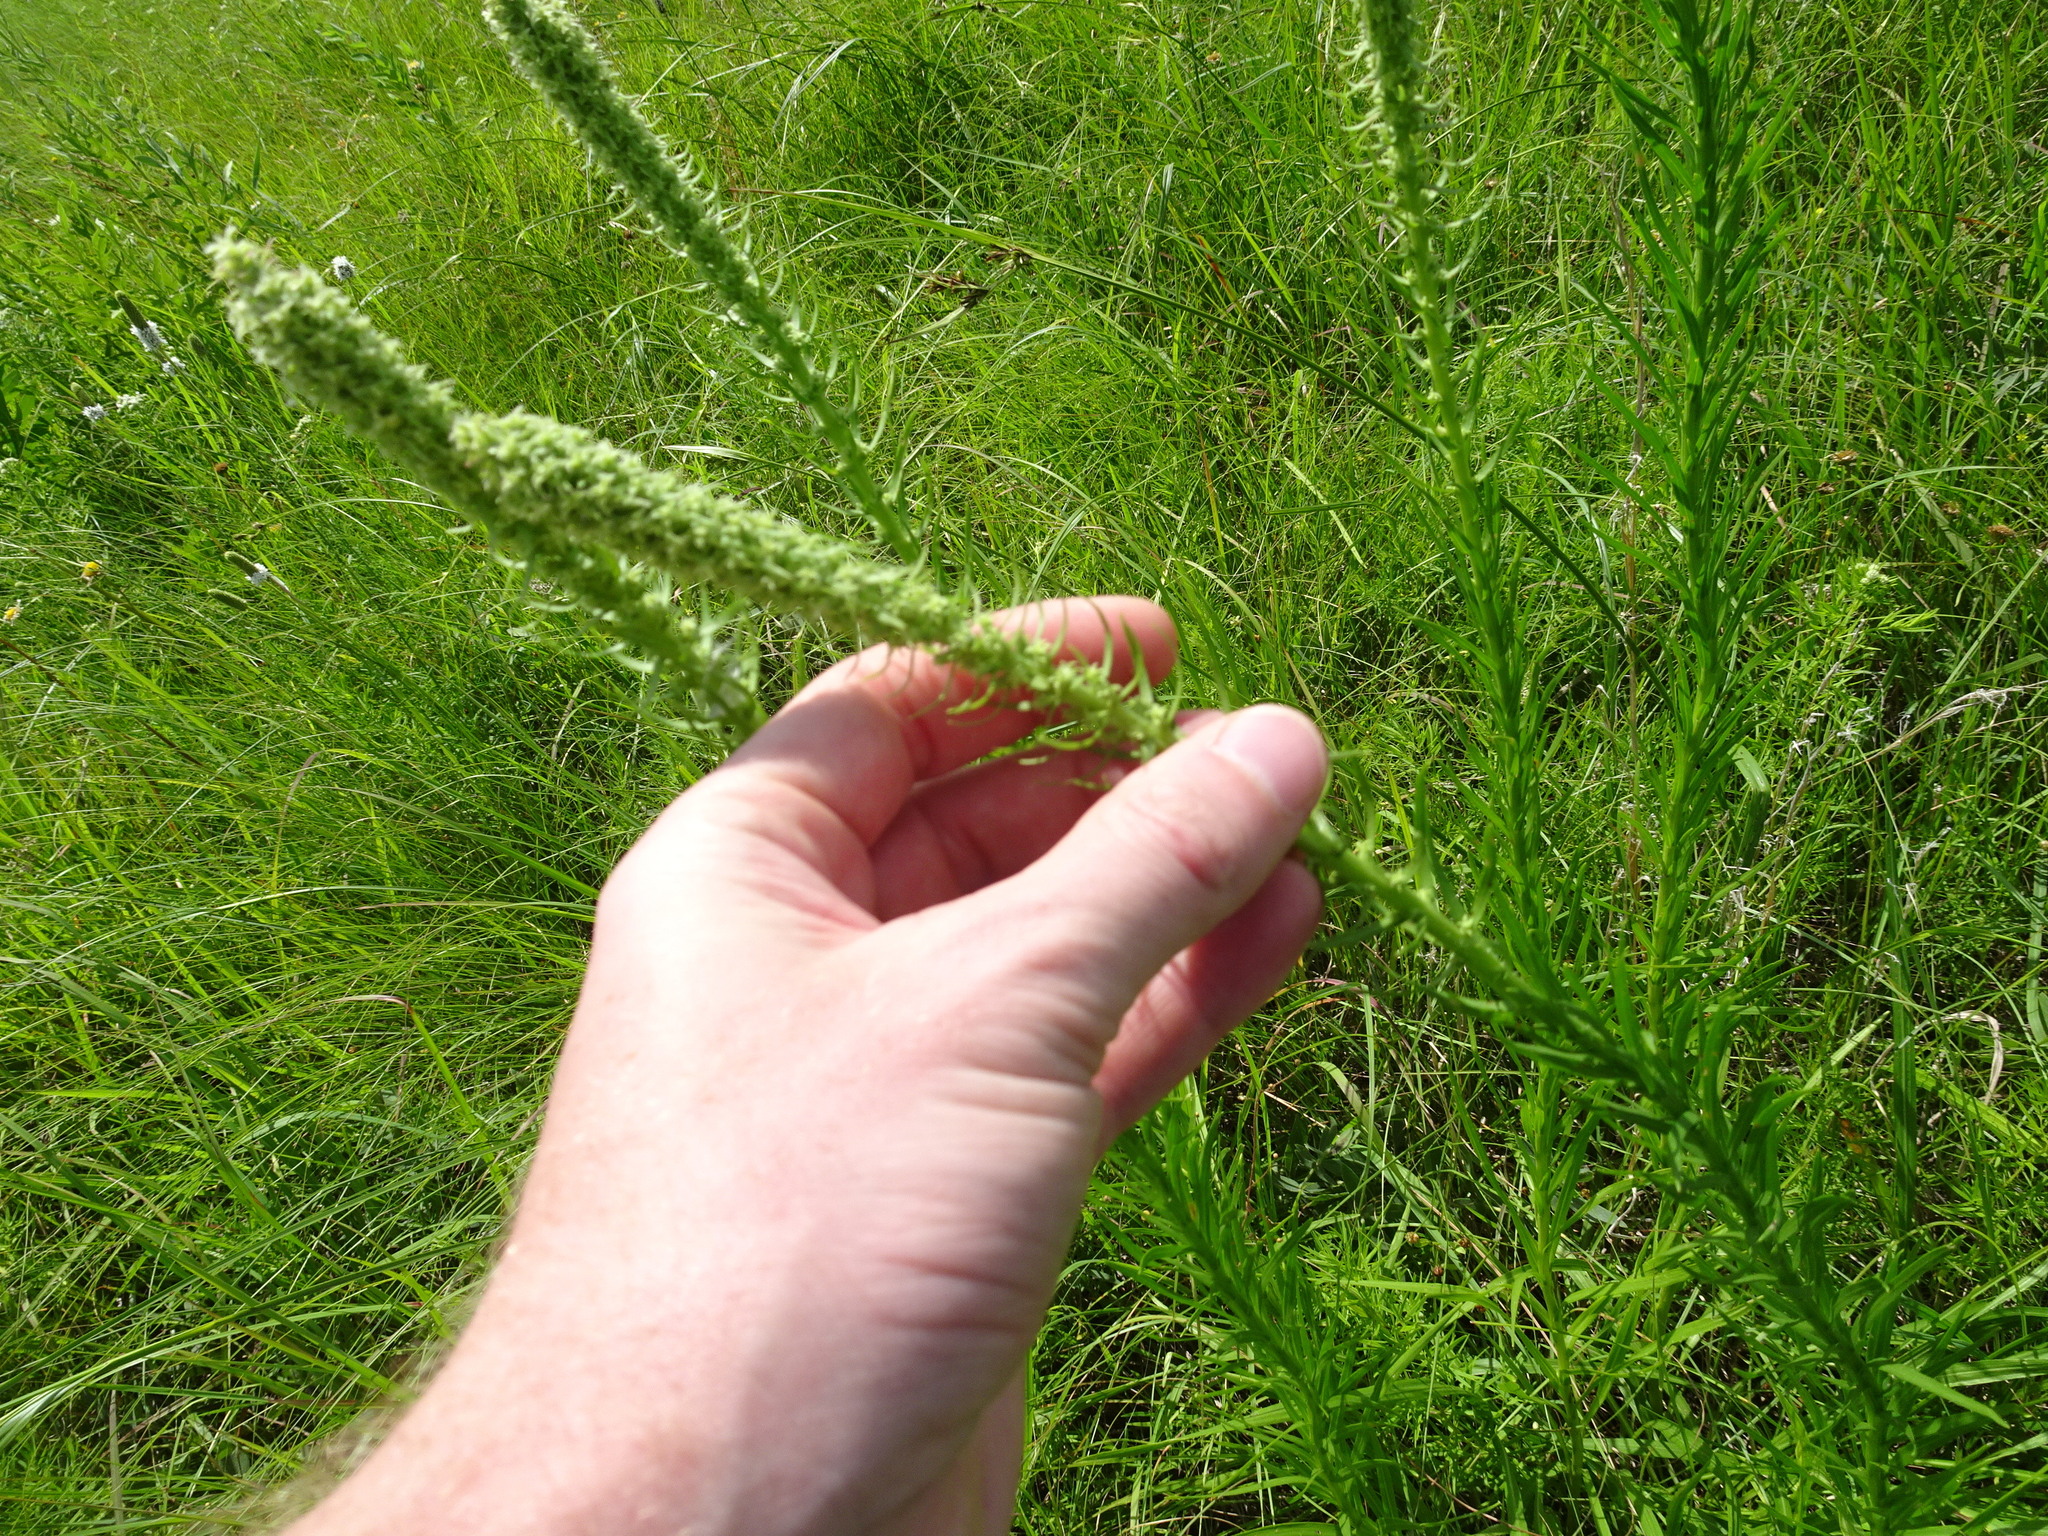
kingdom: Plantae
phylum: Tracheophyta
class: Magnoliopsida
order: Asterales
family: Asteraceae
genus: Liatris
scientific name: Liatris pycnostachya
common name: Cattail gayfeather
